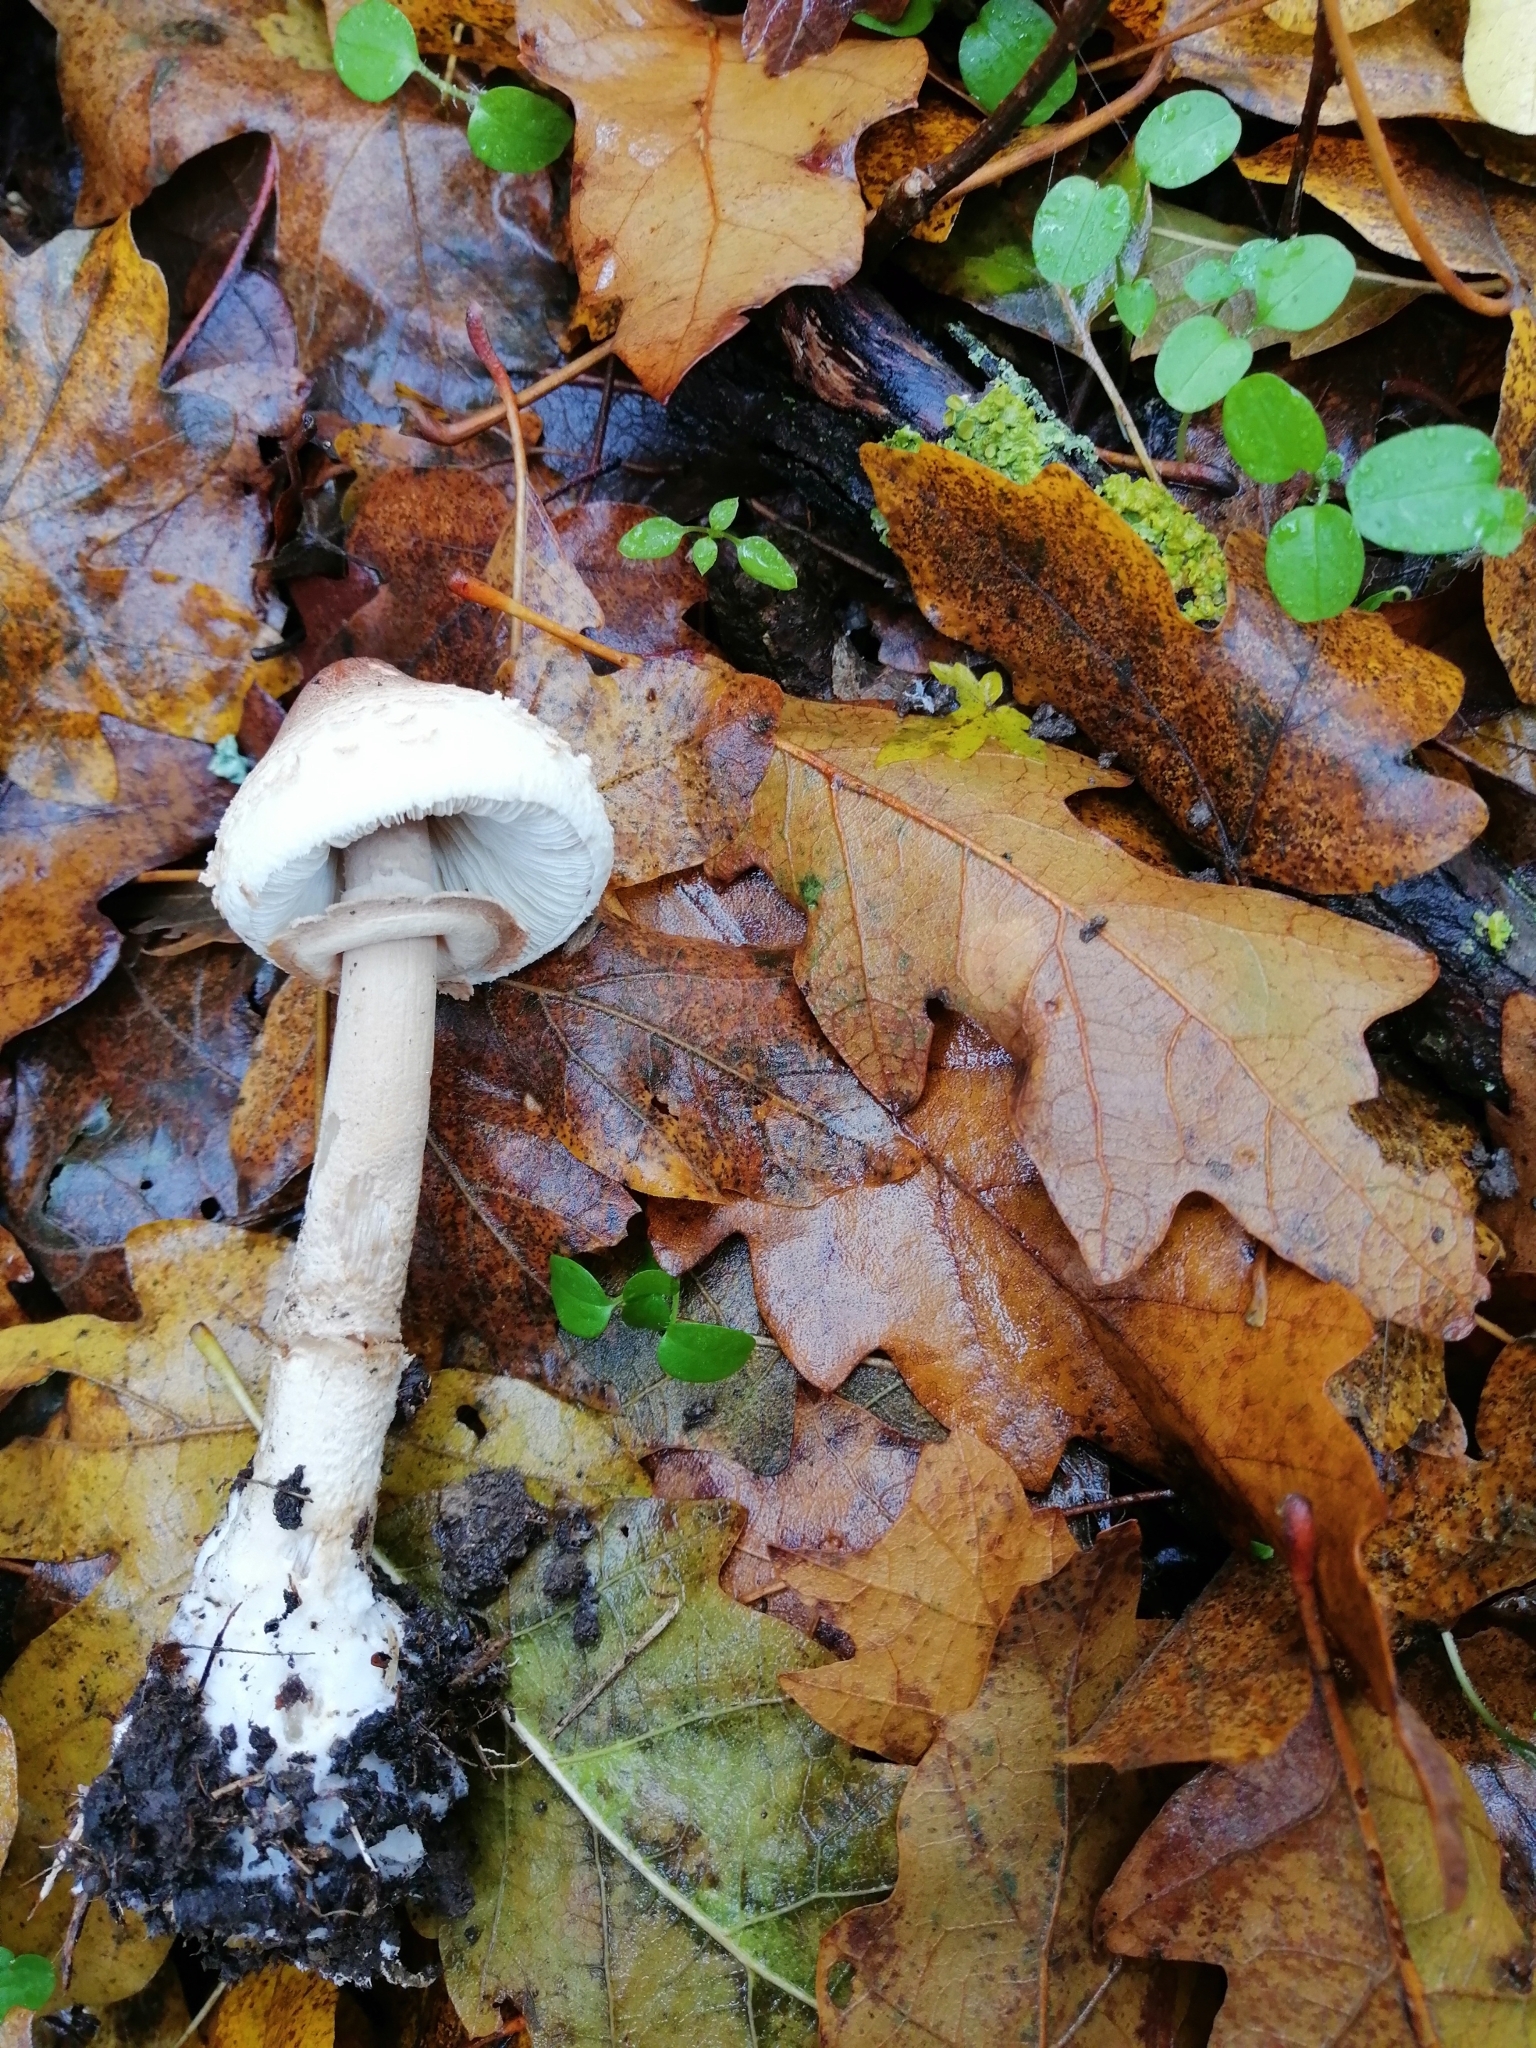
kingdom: Fungi
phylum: Basidiomycota
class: Agaricomycetes
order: Agaricales
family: Agaricaceae
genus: Macrolepiota
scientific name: Macrolepiota mastoidea
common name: Slender parasol
